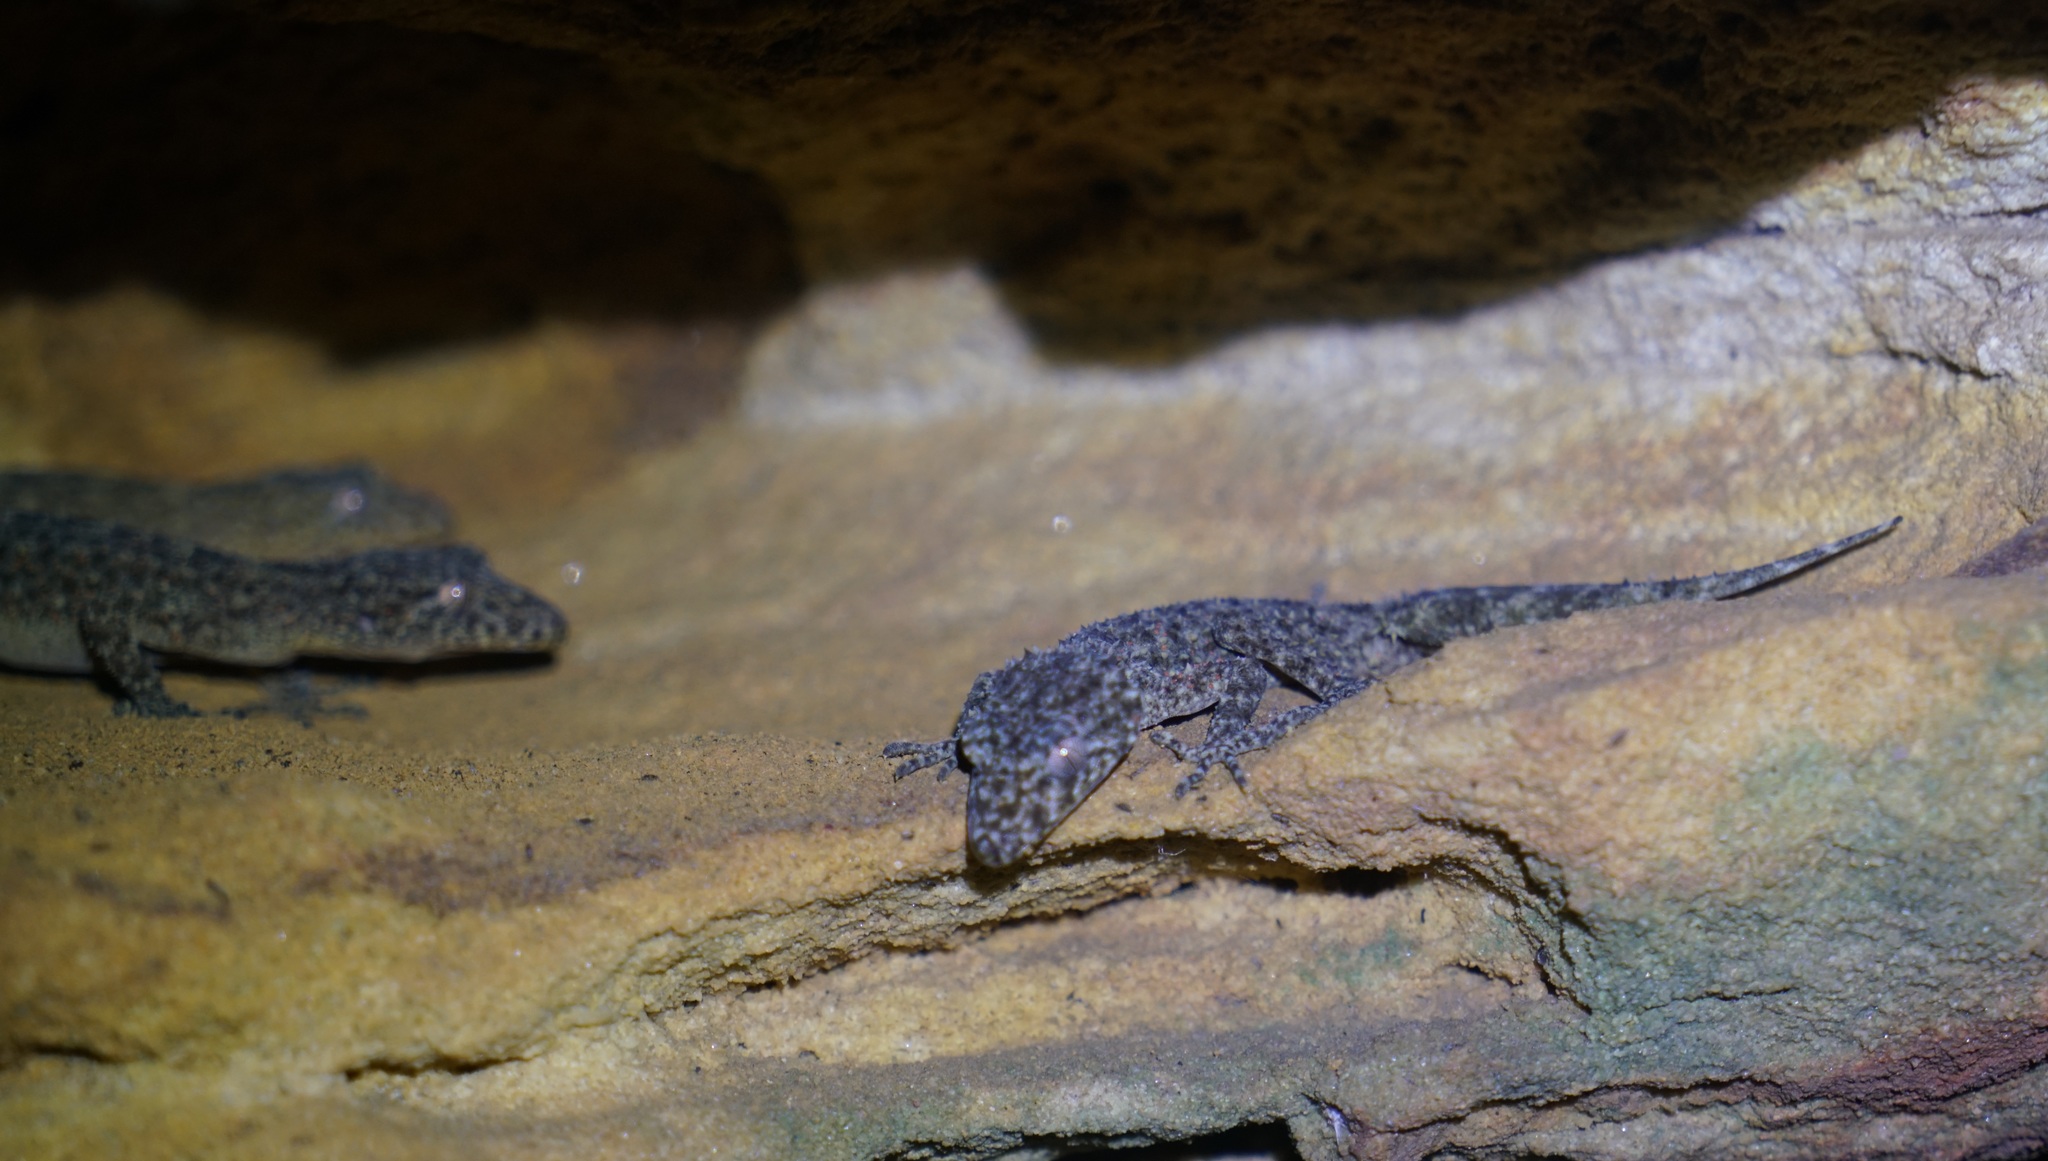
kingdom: Animalia
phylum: Chordata
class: Squamata
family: Carphodactylidae
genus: Phyllurus
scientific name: Phyllurus platurus
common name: Broad-tailed gecko
